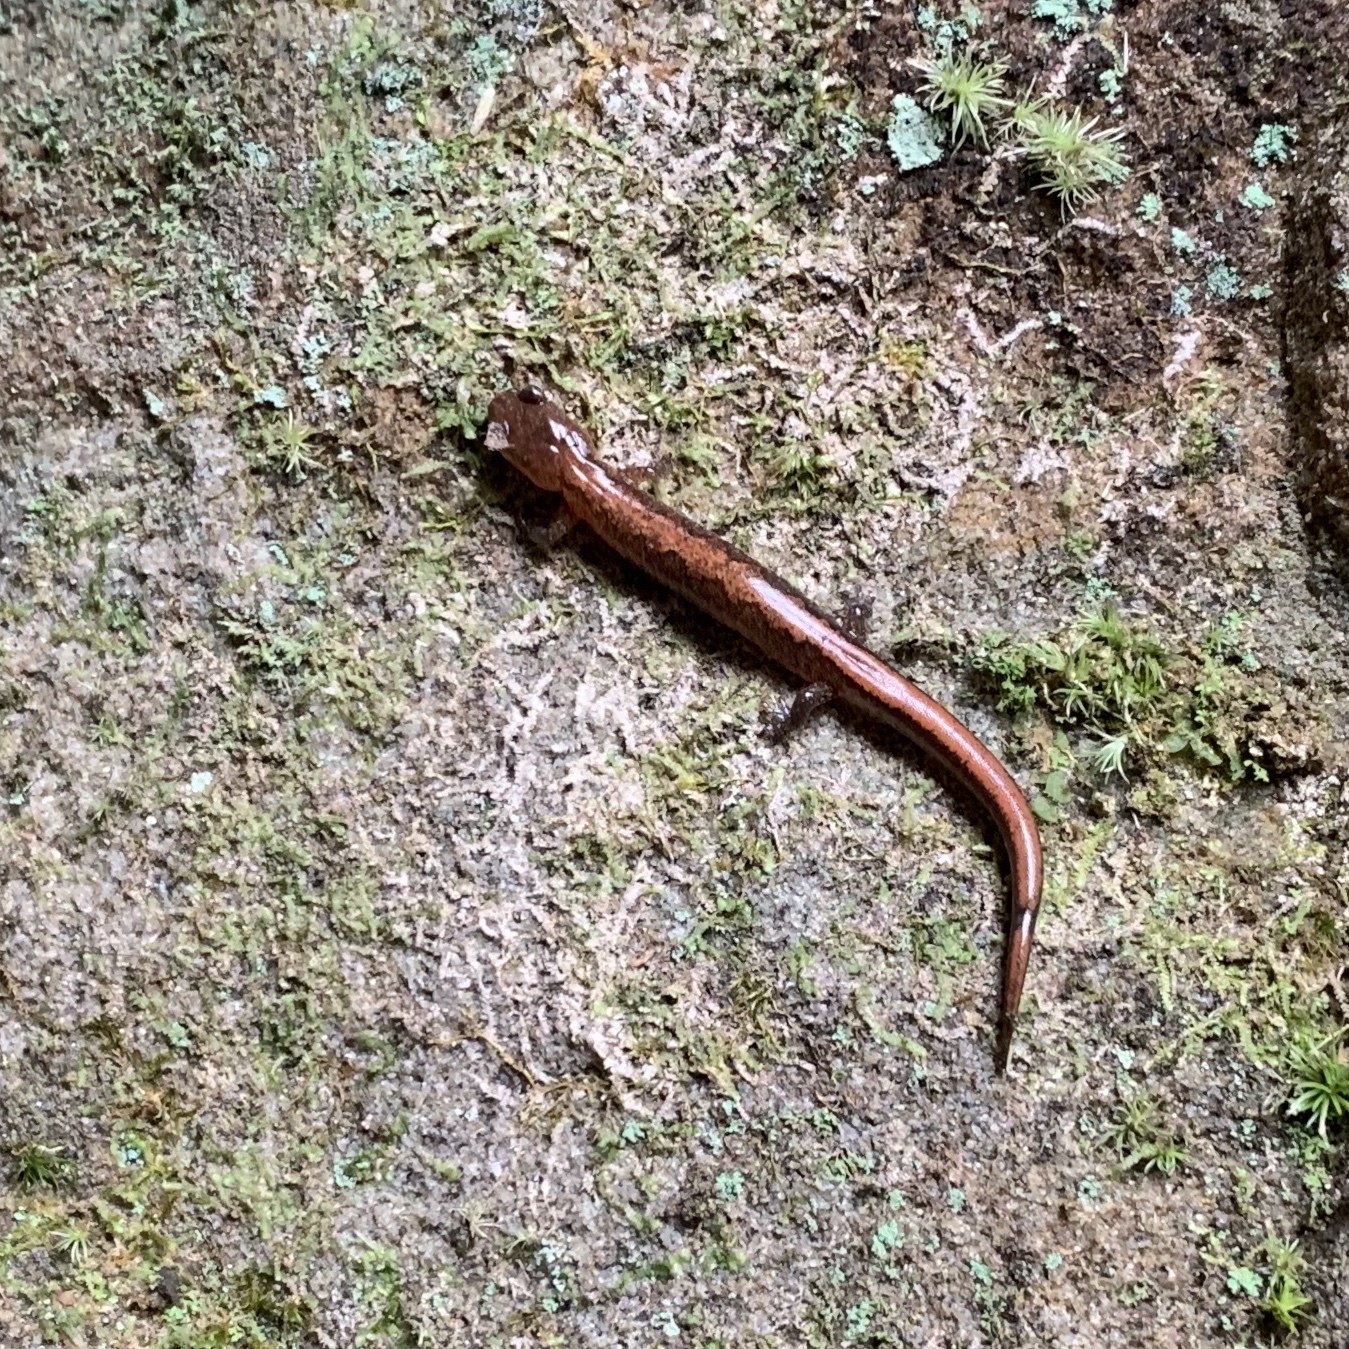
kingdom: Animalia
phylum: Chordata
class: Amphibia
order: Caudata
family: Plethodontidae
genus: Plethodon
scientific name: Plethodon ventralis
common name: Southern zigzag salamander
